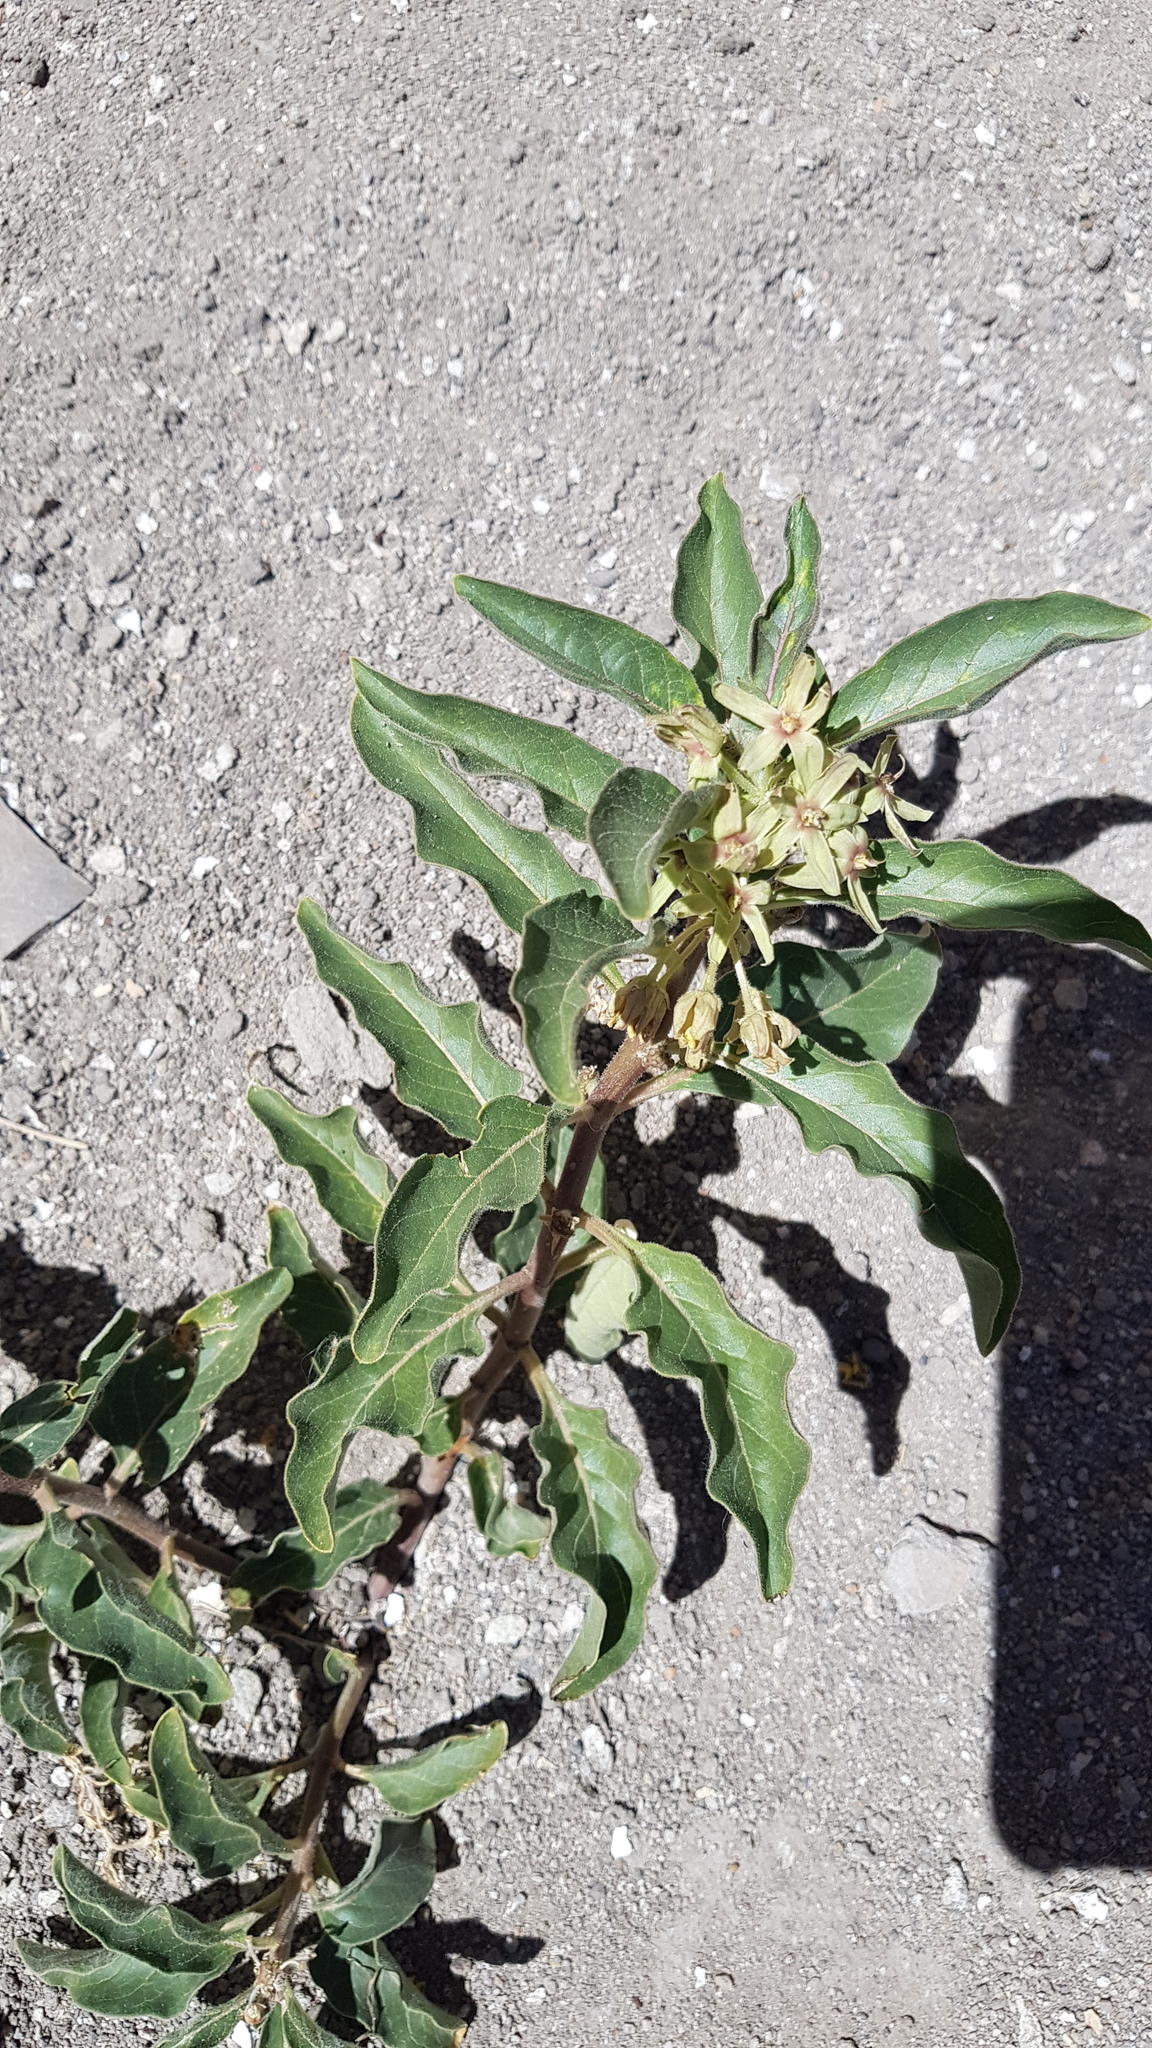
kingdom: Plantae
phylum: Tracheophyta
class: Magnoliopsida
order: Gentianales
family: Apocynaceae
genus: Asclepias
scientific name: Asclepias oenotheroides
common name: Zizotes milkweed
